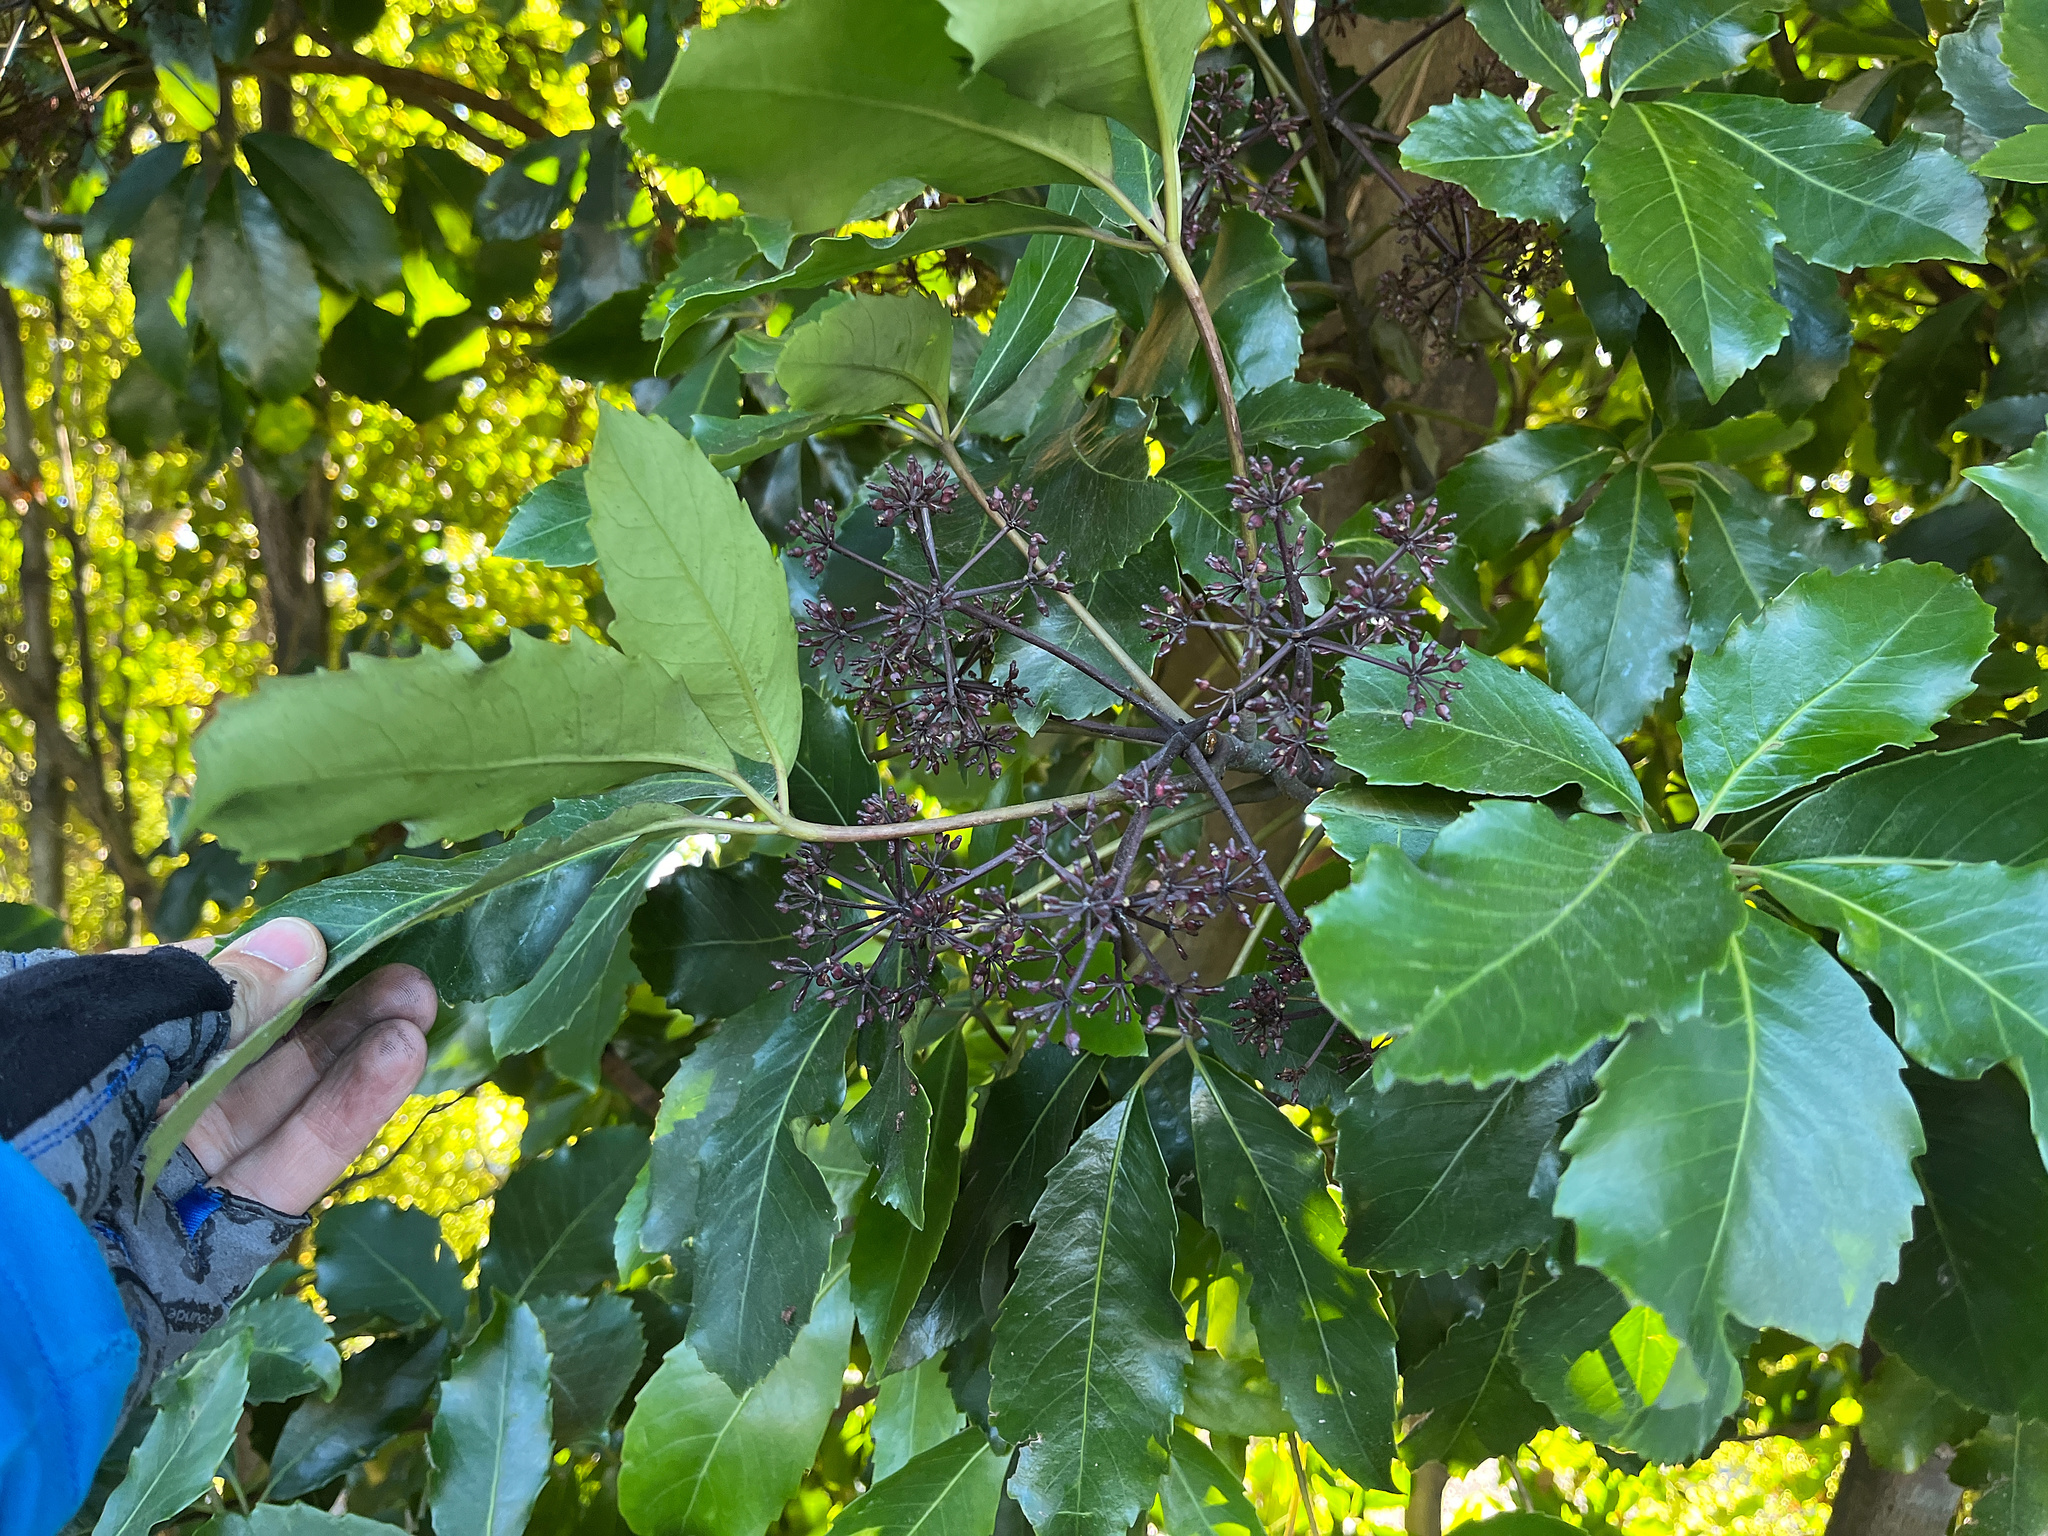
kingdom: Plantae
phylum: Tracheophyta
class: Magnoliopsida
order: Apiales
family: Araliaceae
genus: Neopanax
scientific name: Neopanax arboreus
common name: Five-fingers
